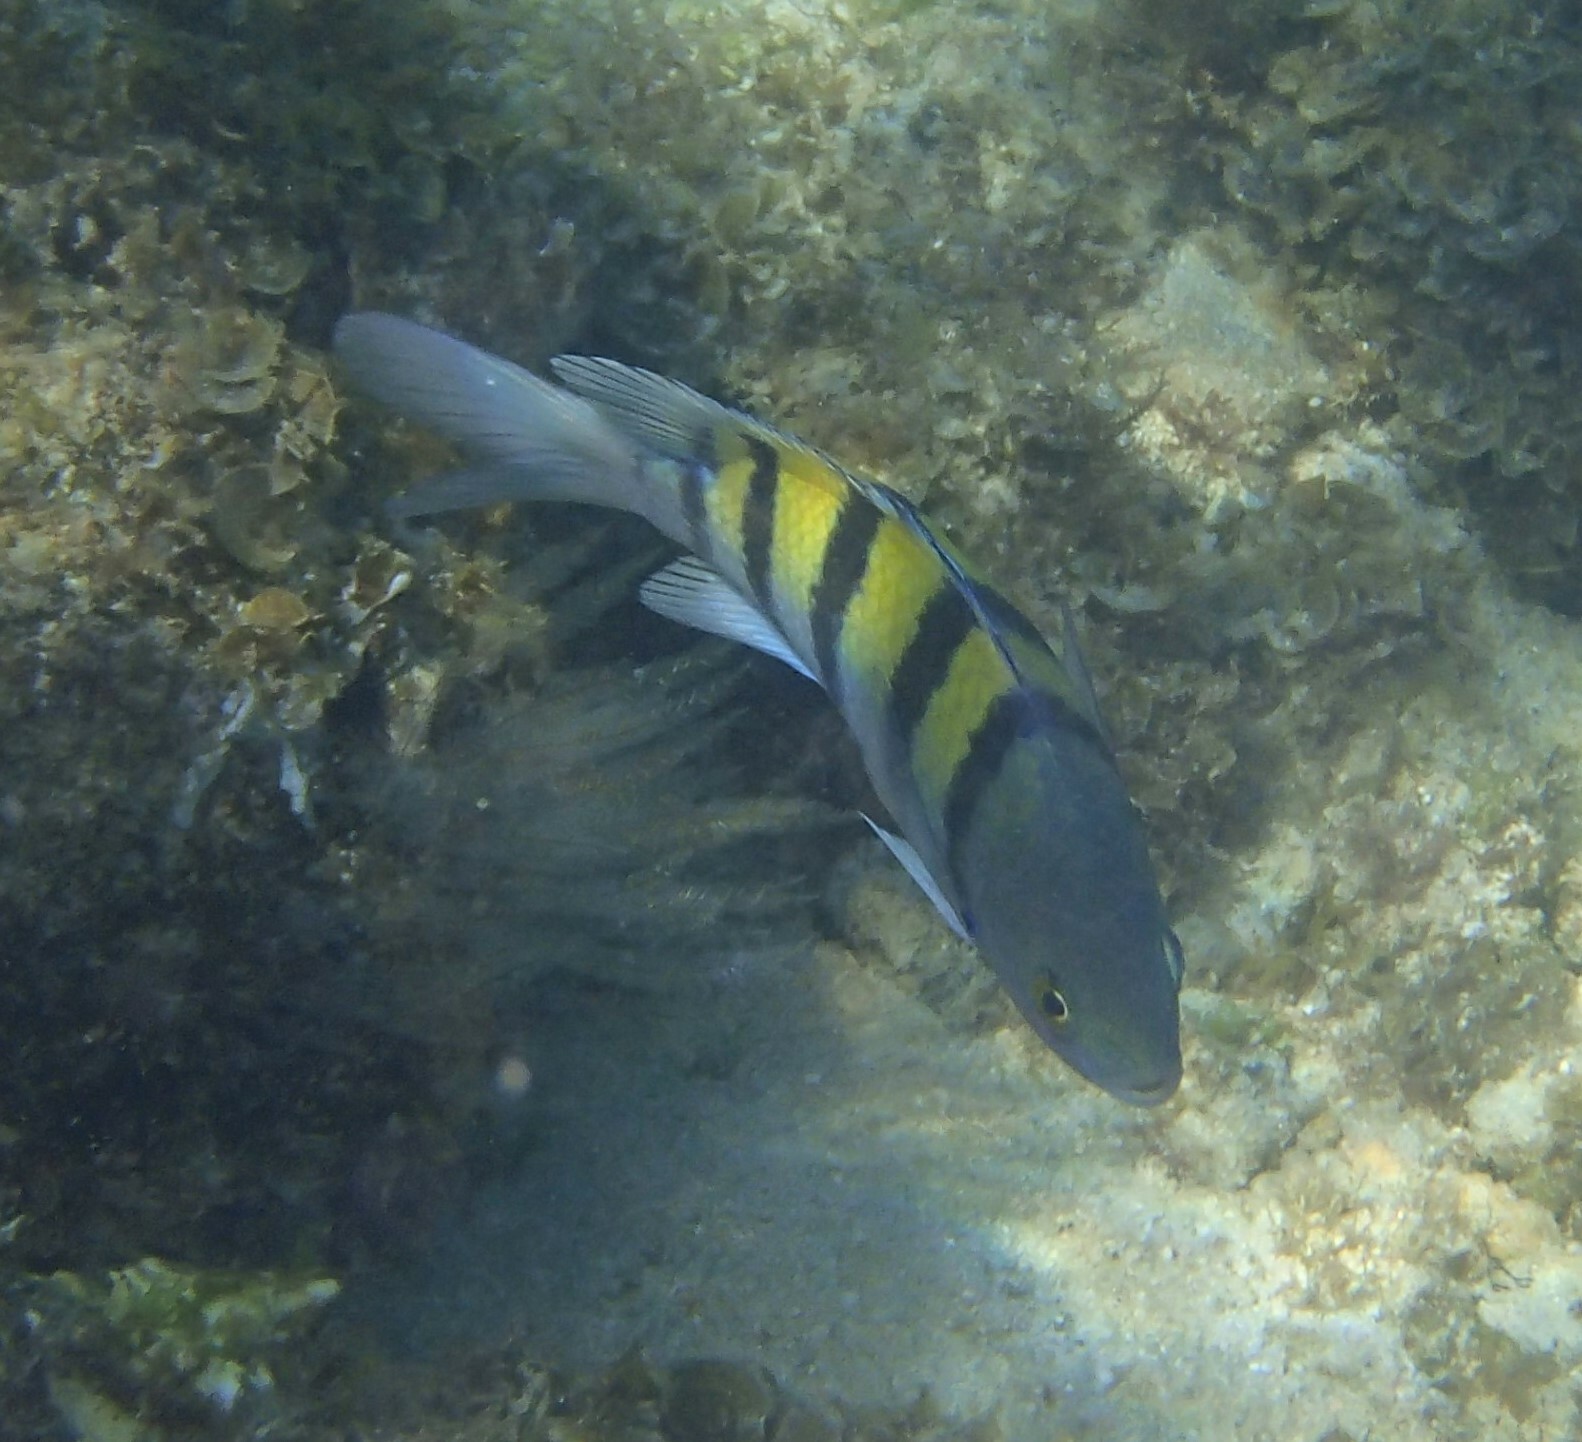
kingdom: Animalia
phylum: Chordata
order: Perciformes
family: Pomacentridae
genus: Abudefduf
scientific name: Abudefduf troschelii
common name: Panamic sergeant major
